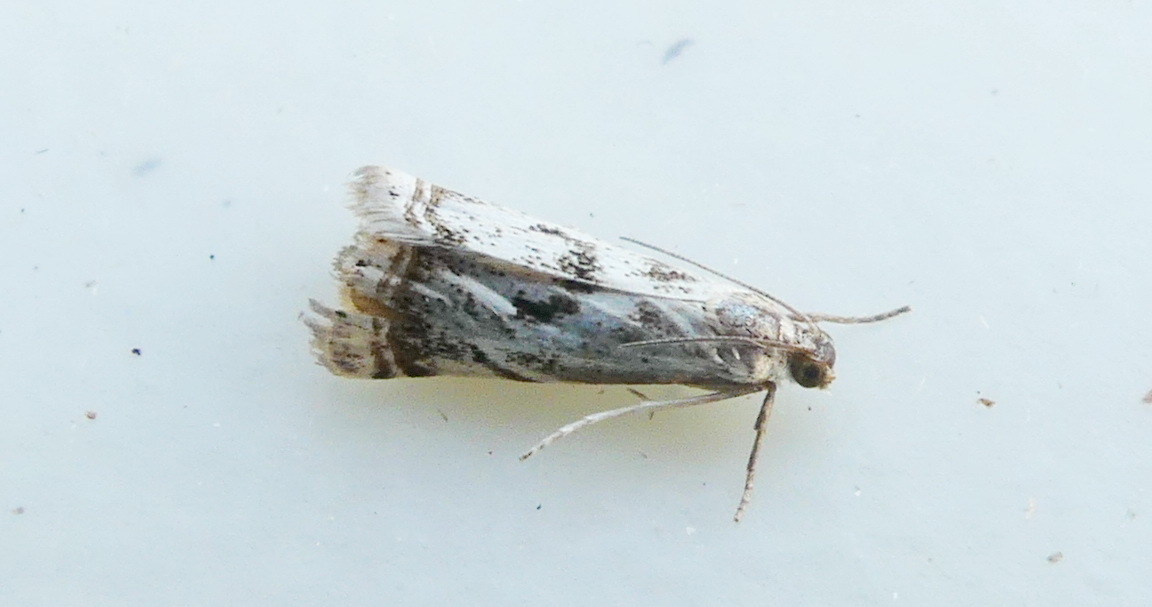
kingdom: Animalia
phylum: Arthropoda
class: Insecta
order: Lepidoptera
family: Crambidae
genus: Microcrambus
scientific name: Microcrambus elegans
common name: Elegant grass-veneer
